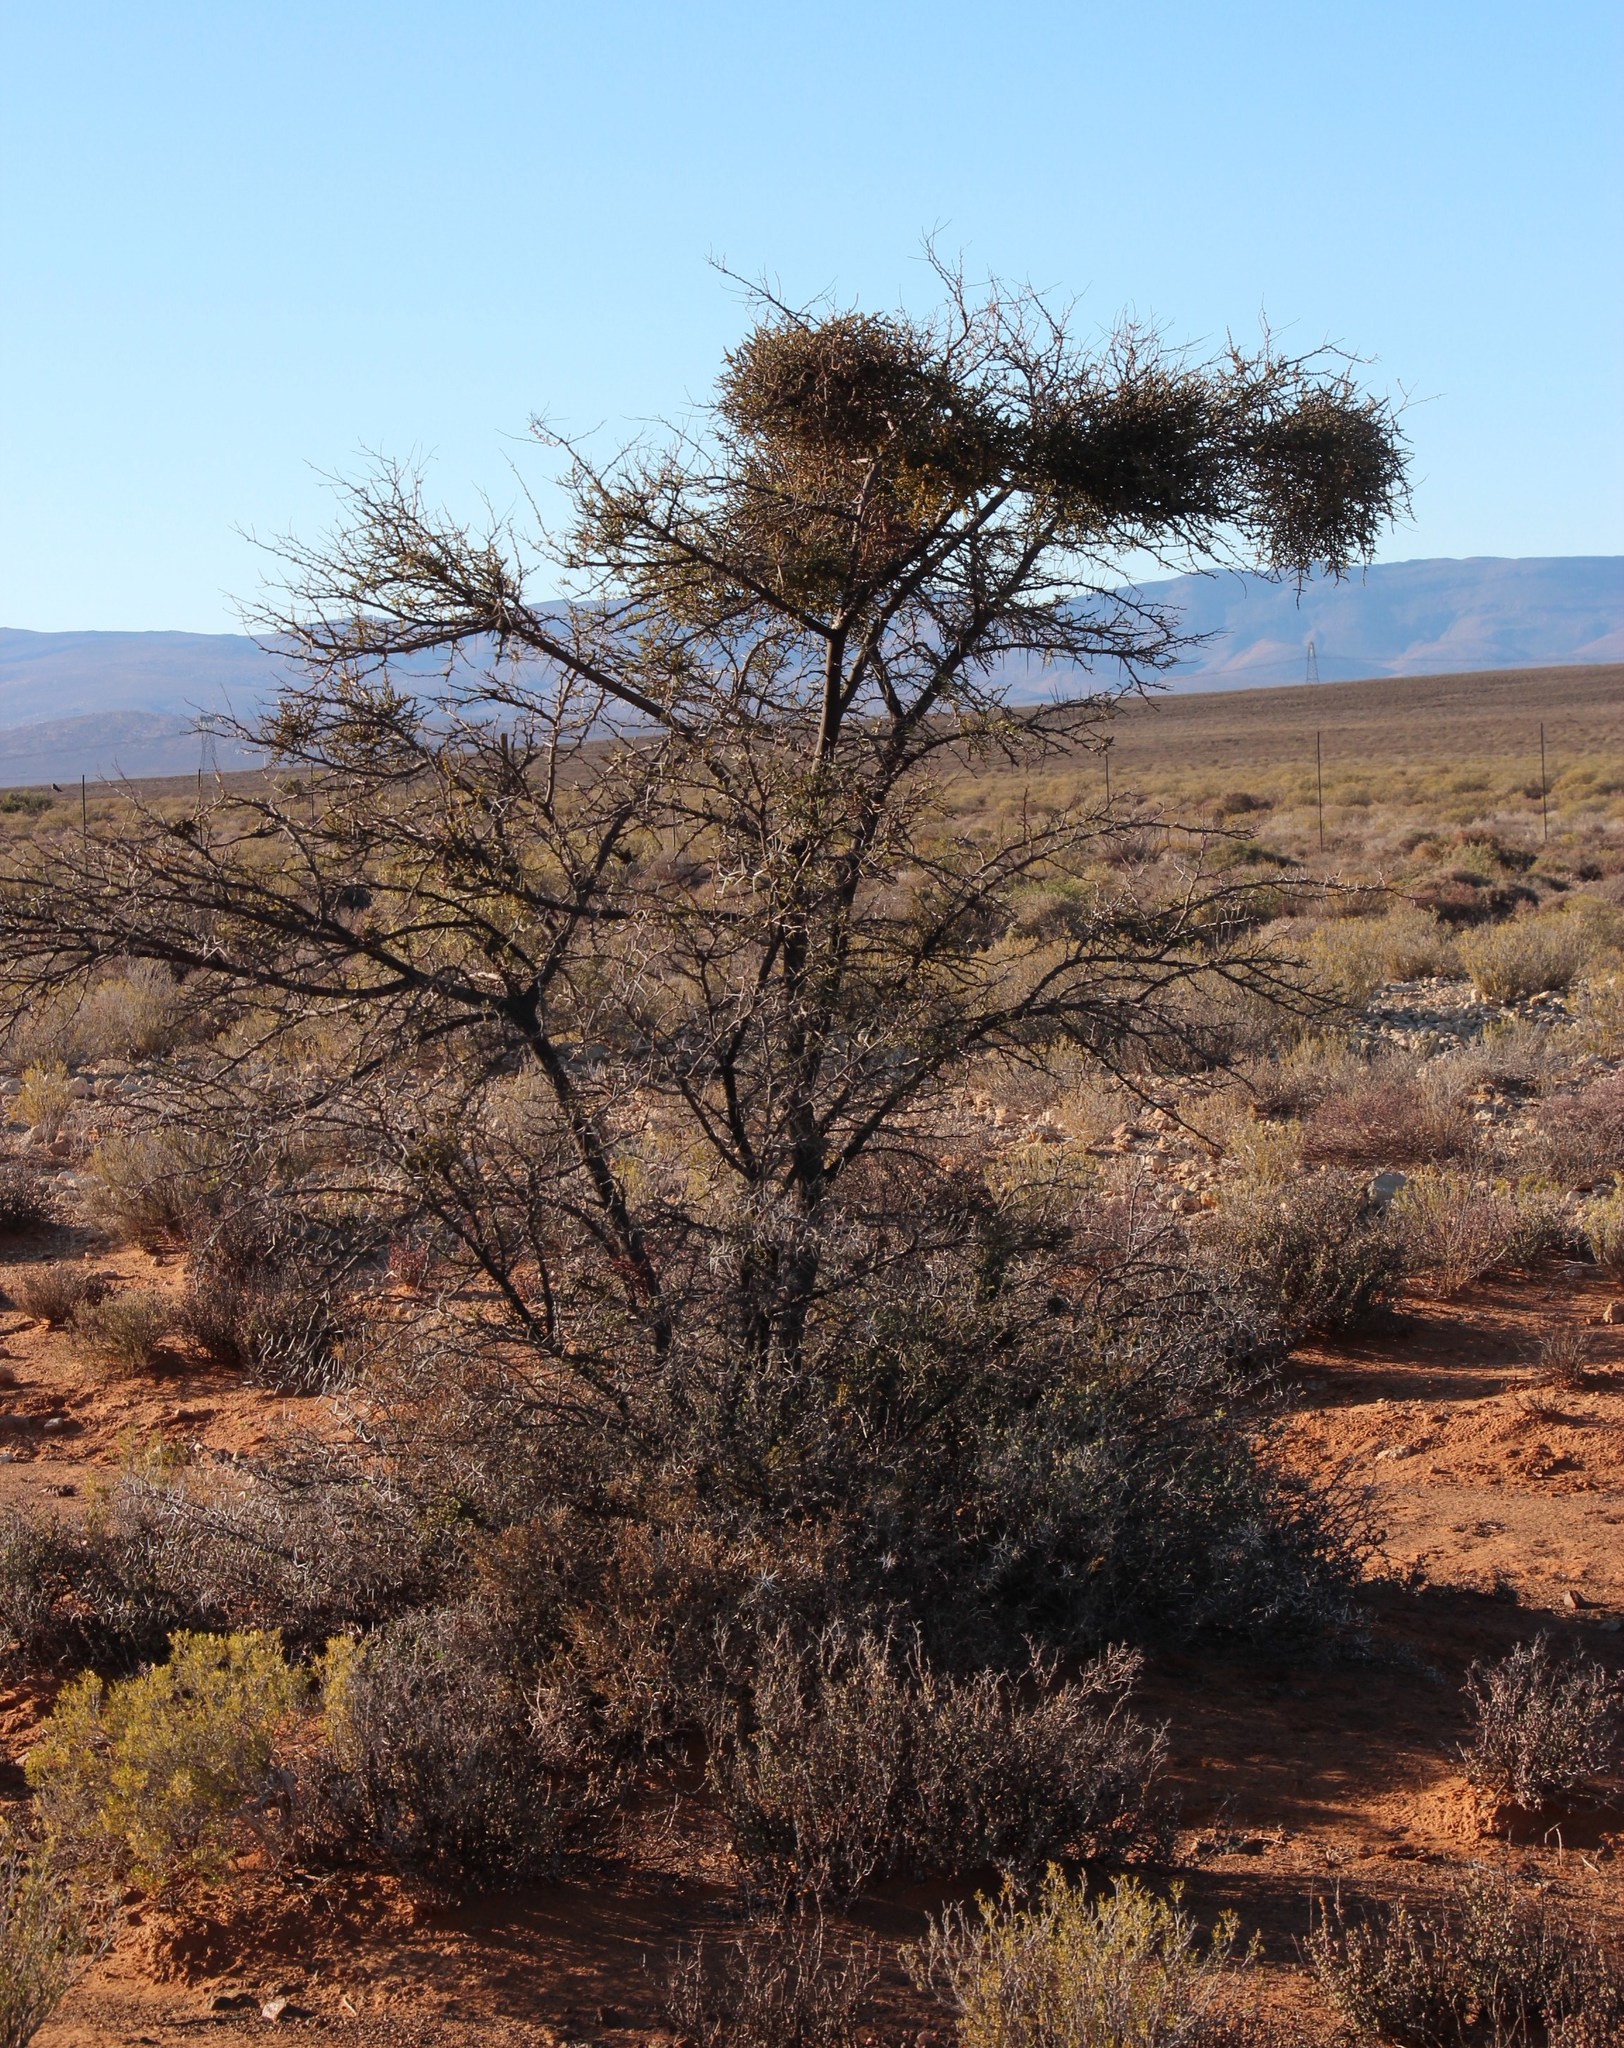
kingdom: Plantae
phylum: Tracheophyta
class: Magnoliopsida
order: Fabales
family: Fabaceae
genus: Vachellia
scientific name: Vachellia karroo
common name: Sweet thorn
